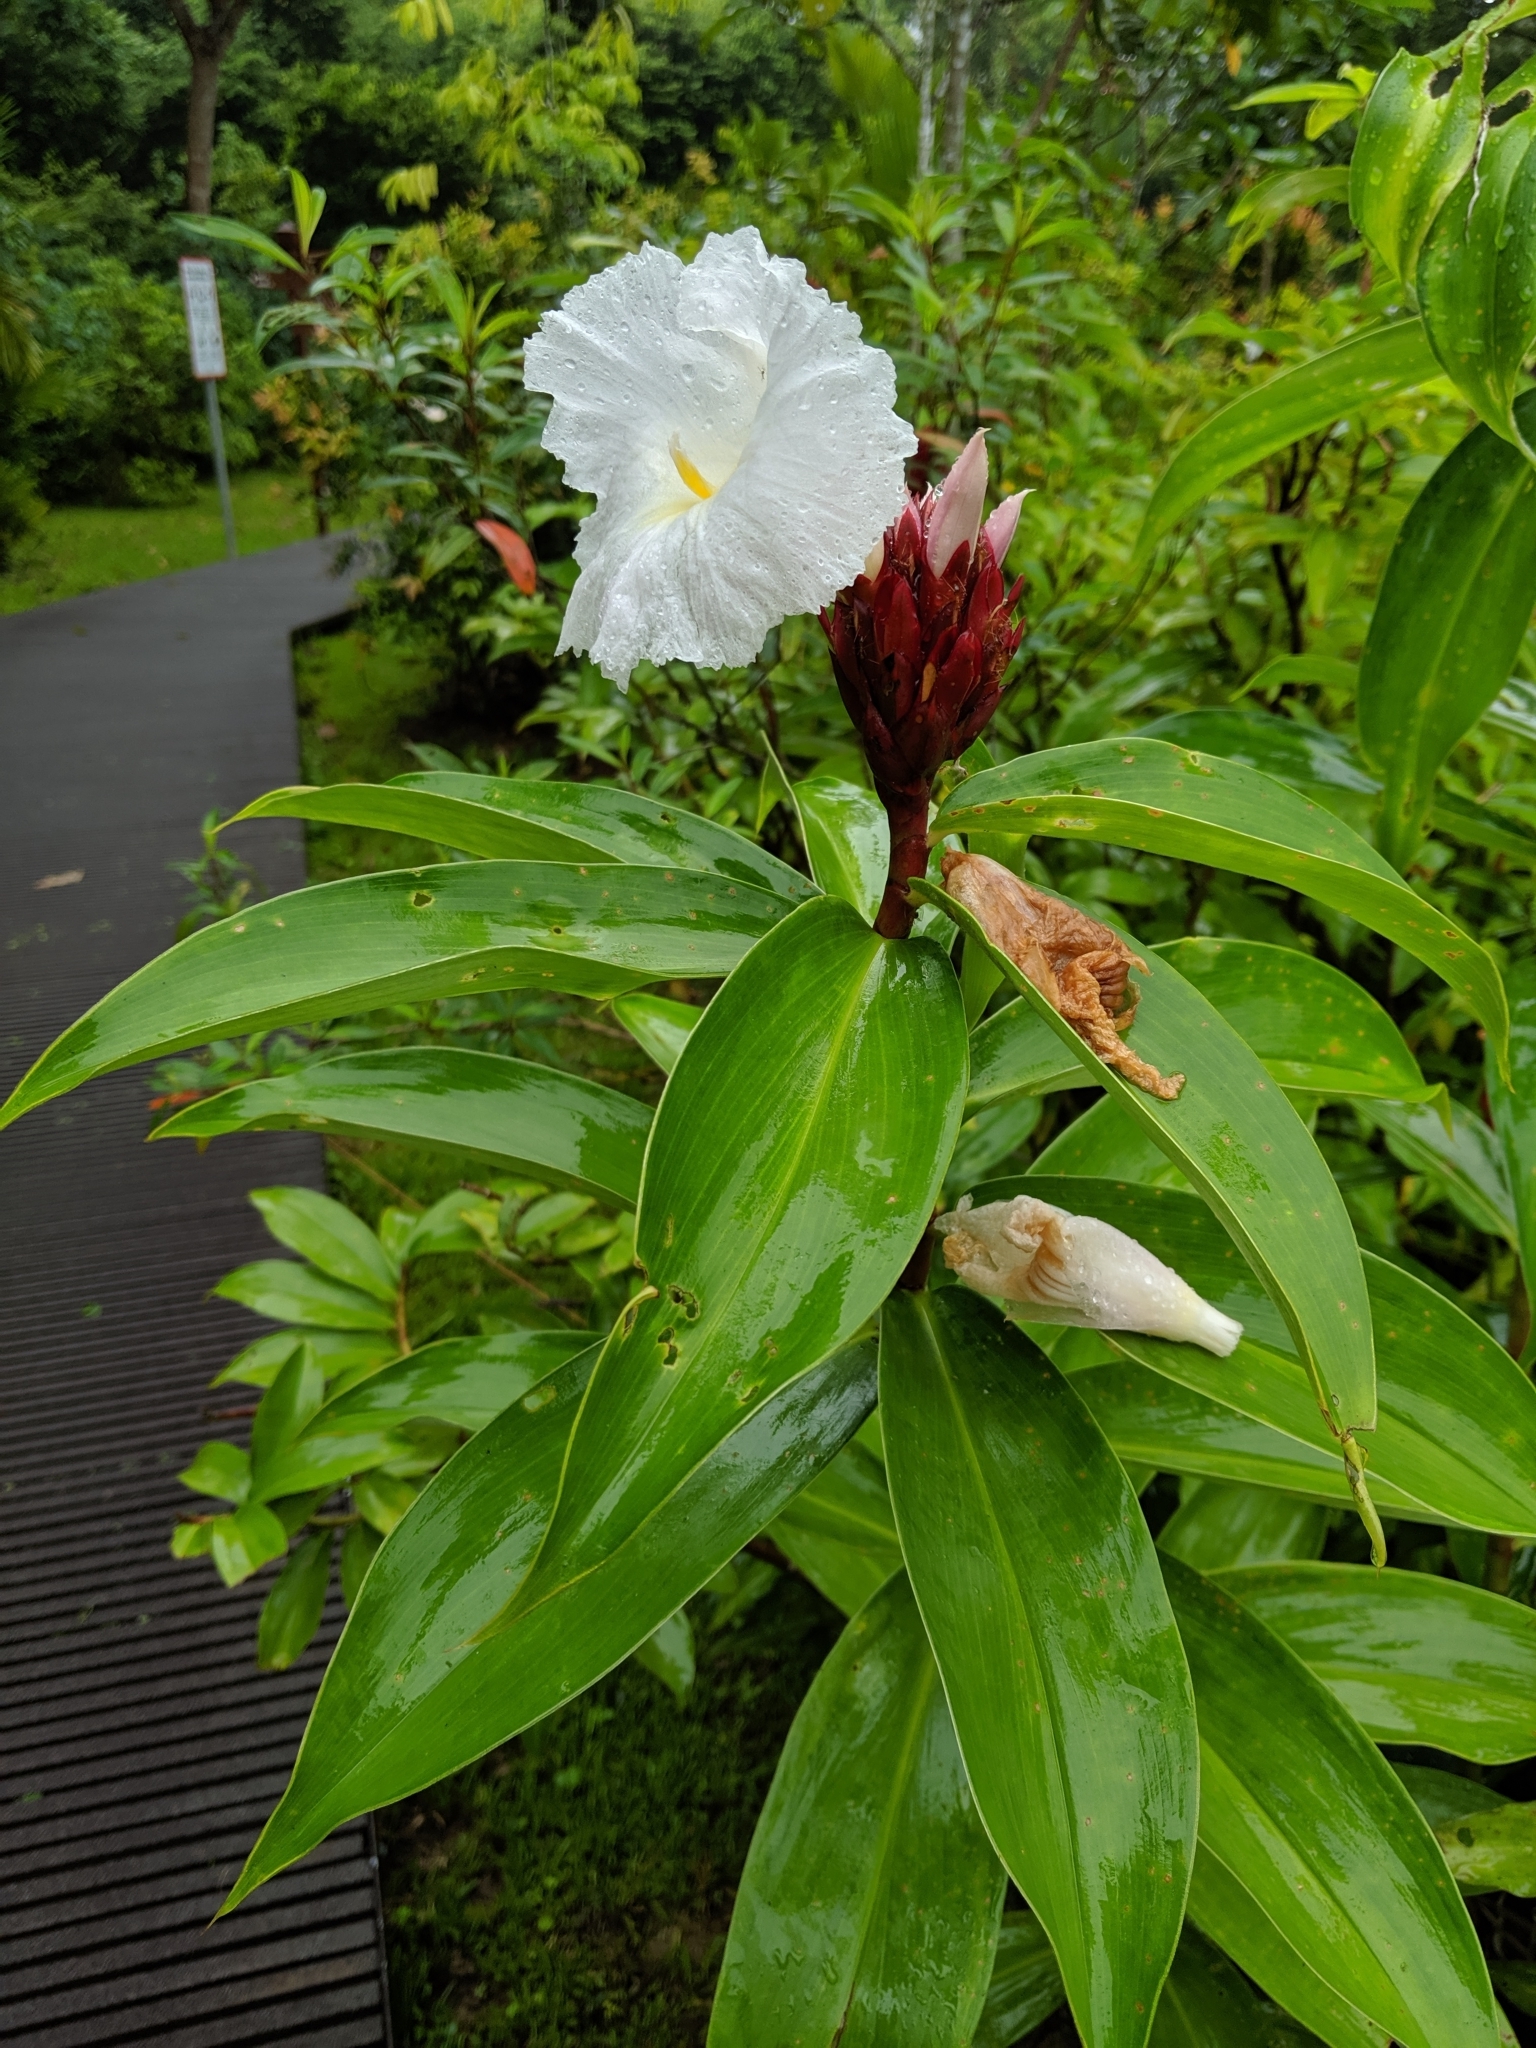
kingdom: Plantae
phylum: Tracheophyta
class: Liliopsida
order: Zingiberales
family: Costaceae
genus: Hellenia
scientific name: Hellenia speciosa
